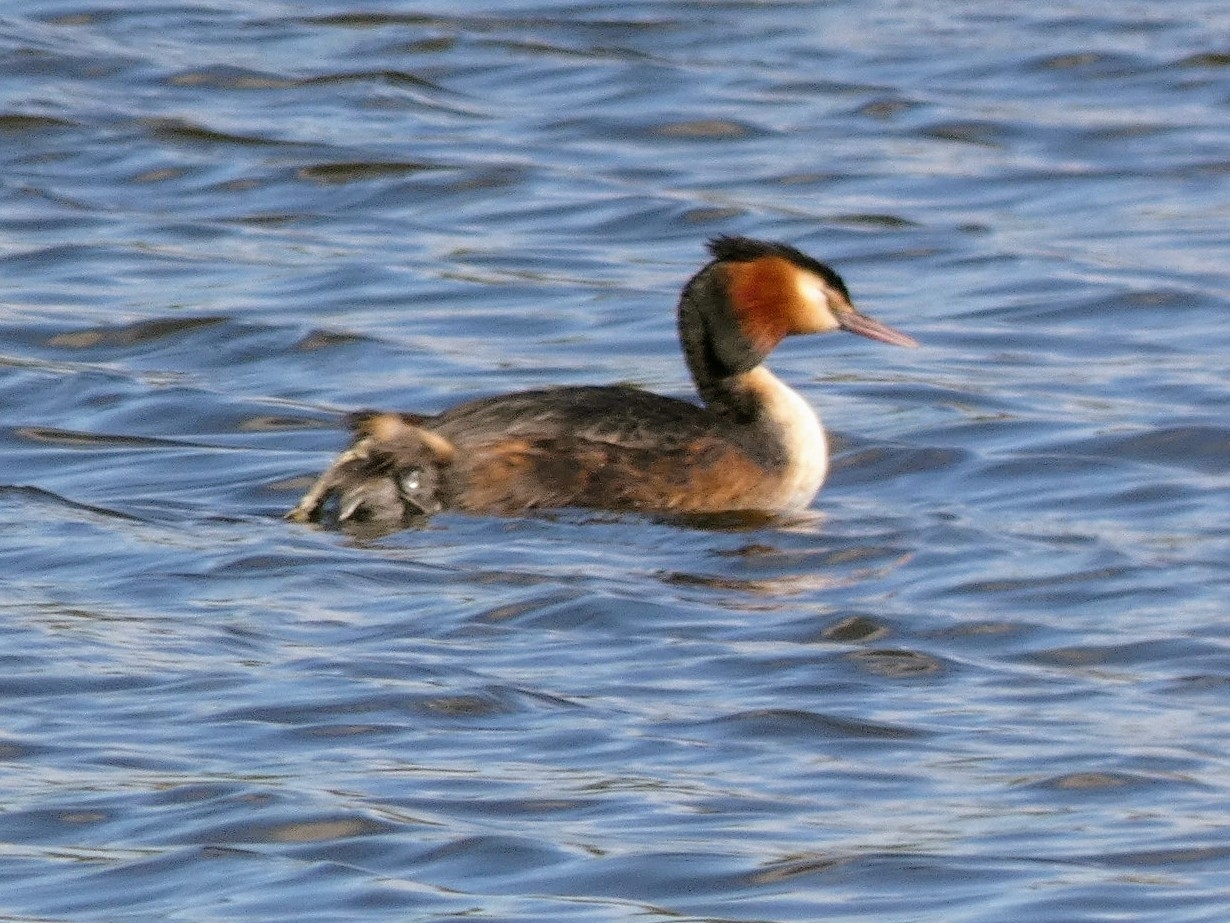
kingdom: Animalia
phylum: Chordata
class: Aves
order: Podicipediformes
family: Podicipedidae
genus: Podiceps
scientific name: Podiceps cristatus
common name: Great crested grebe
